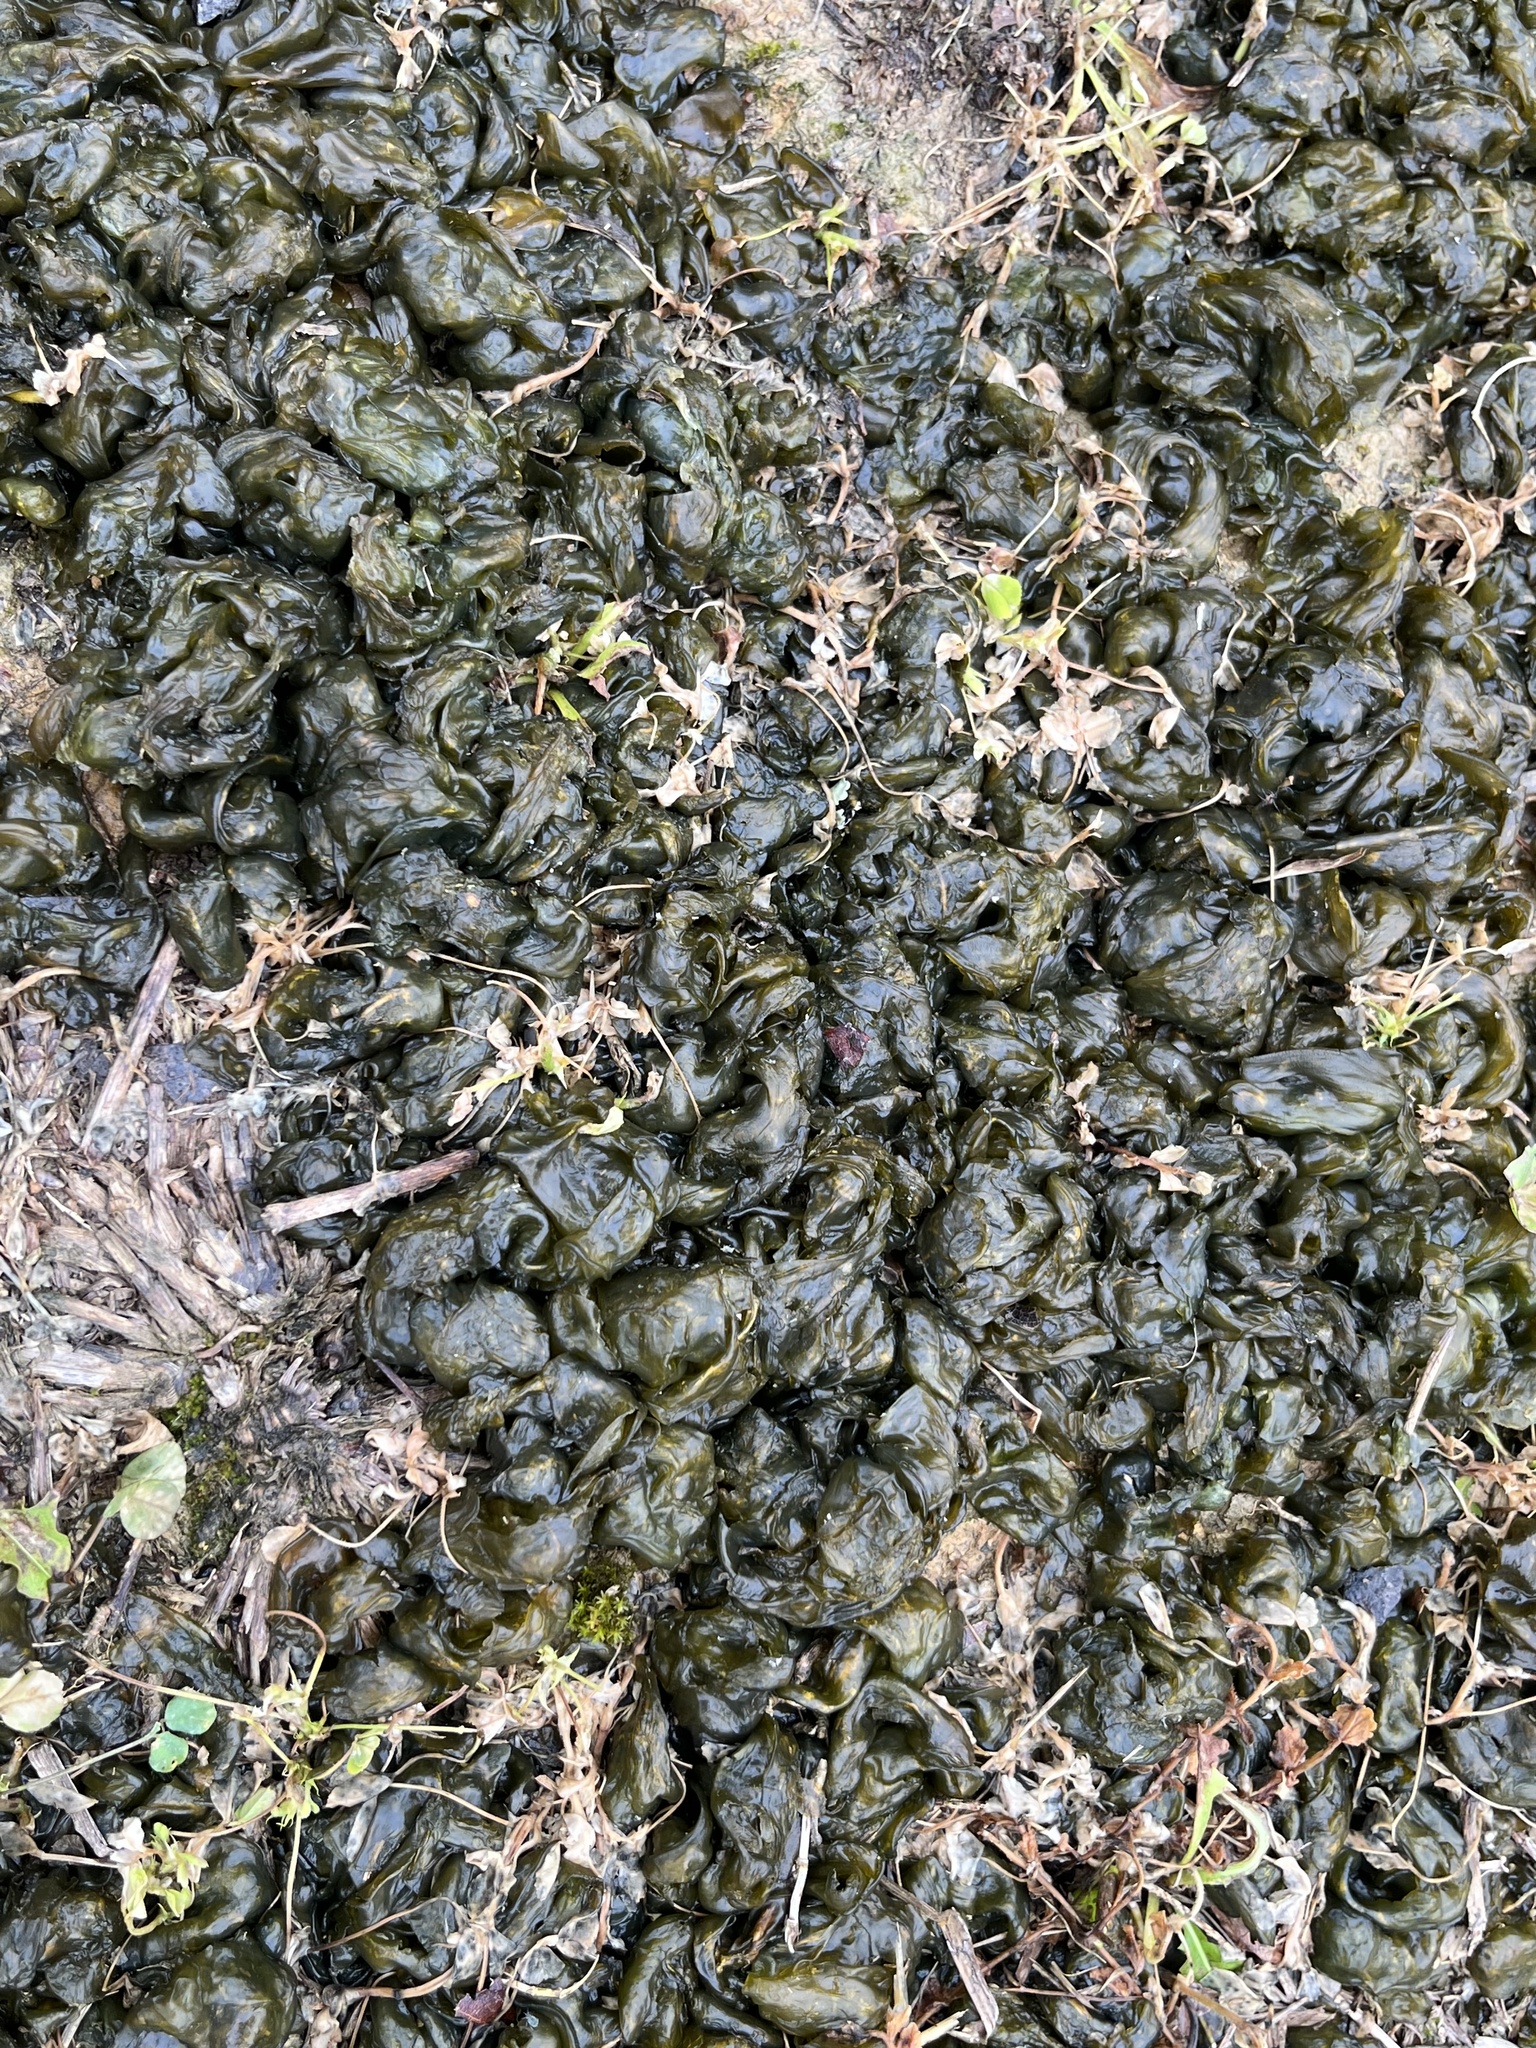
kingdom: Bacteria
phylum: Cyanobacteria
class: Cyanobacteriia
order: Cyanobacteriales
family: Nostocaceae
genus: Nostoc
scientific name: Nostoc commune
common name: Star jelly
